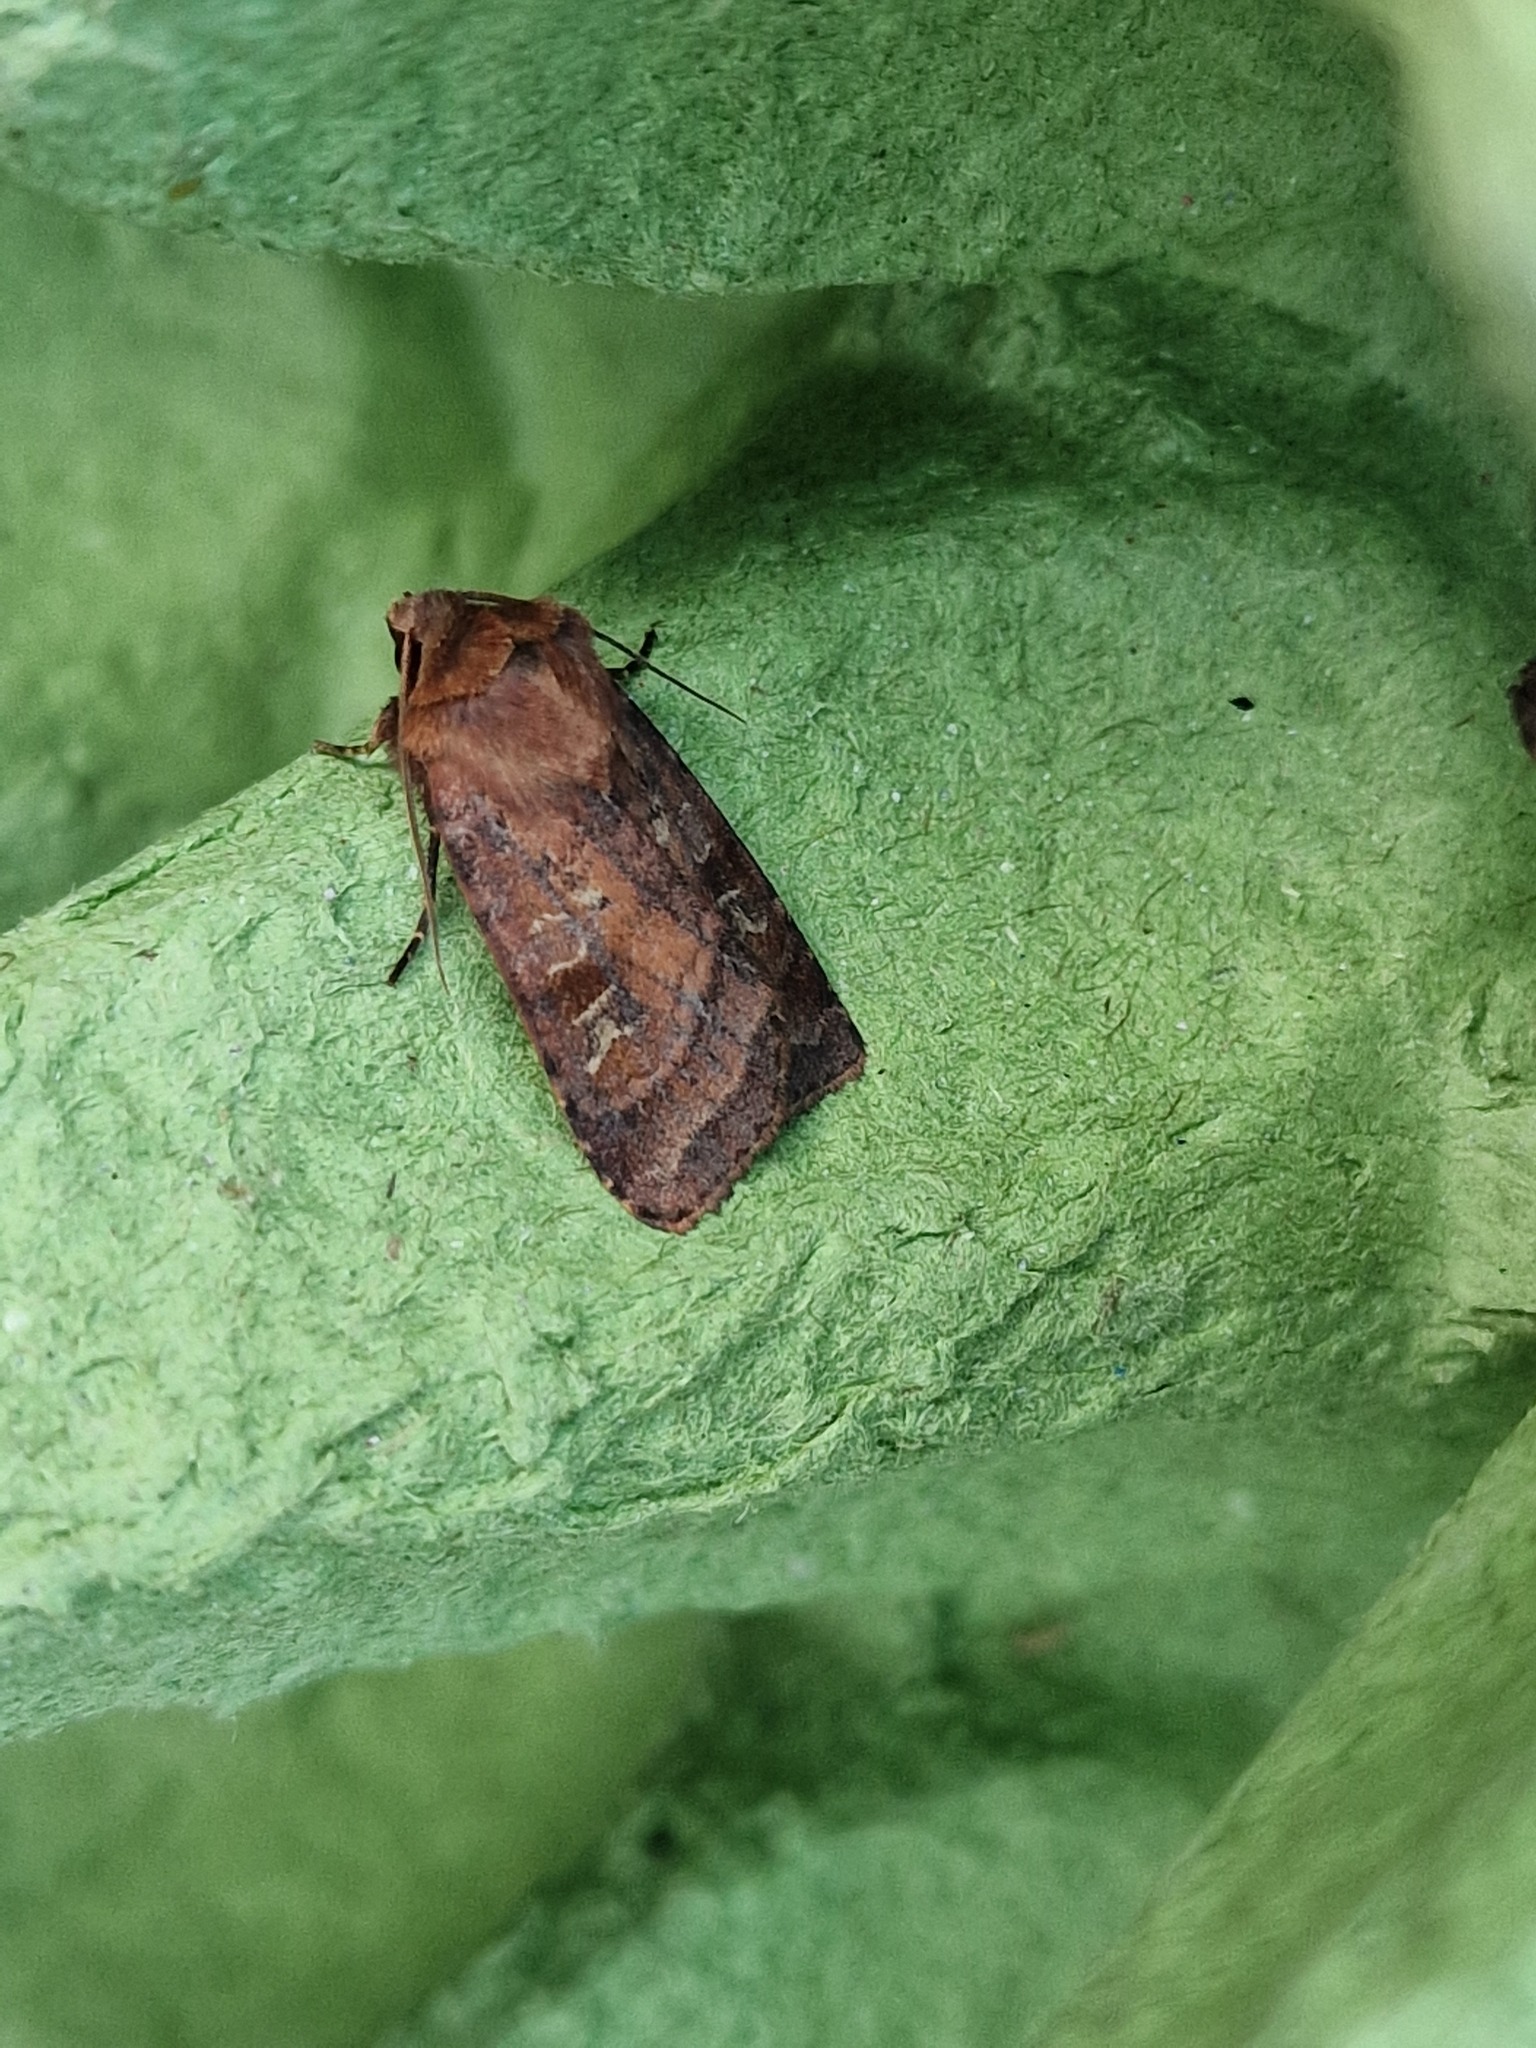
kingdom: Animalia
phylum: Arthropoda
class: Insecta
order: Lepidoptera
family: Noctuidae
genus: Diarsia
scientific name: Diarsia rubi
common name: Small square-spot
